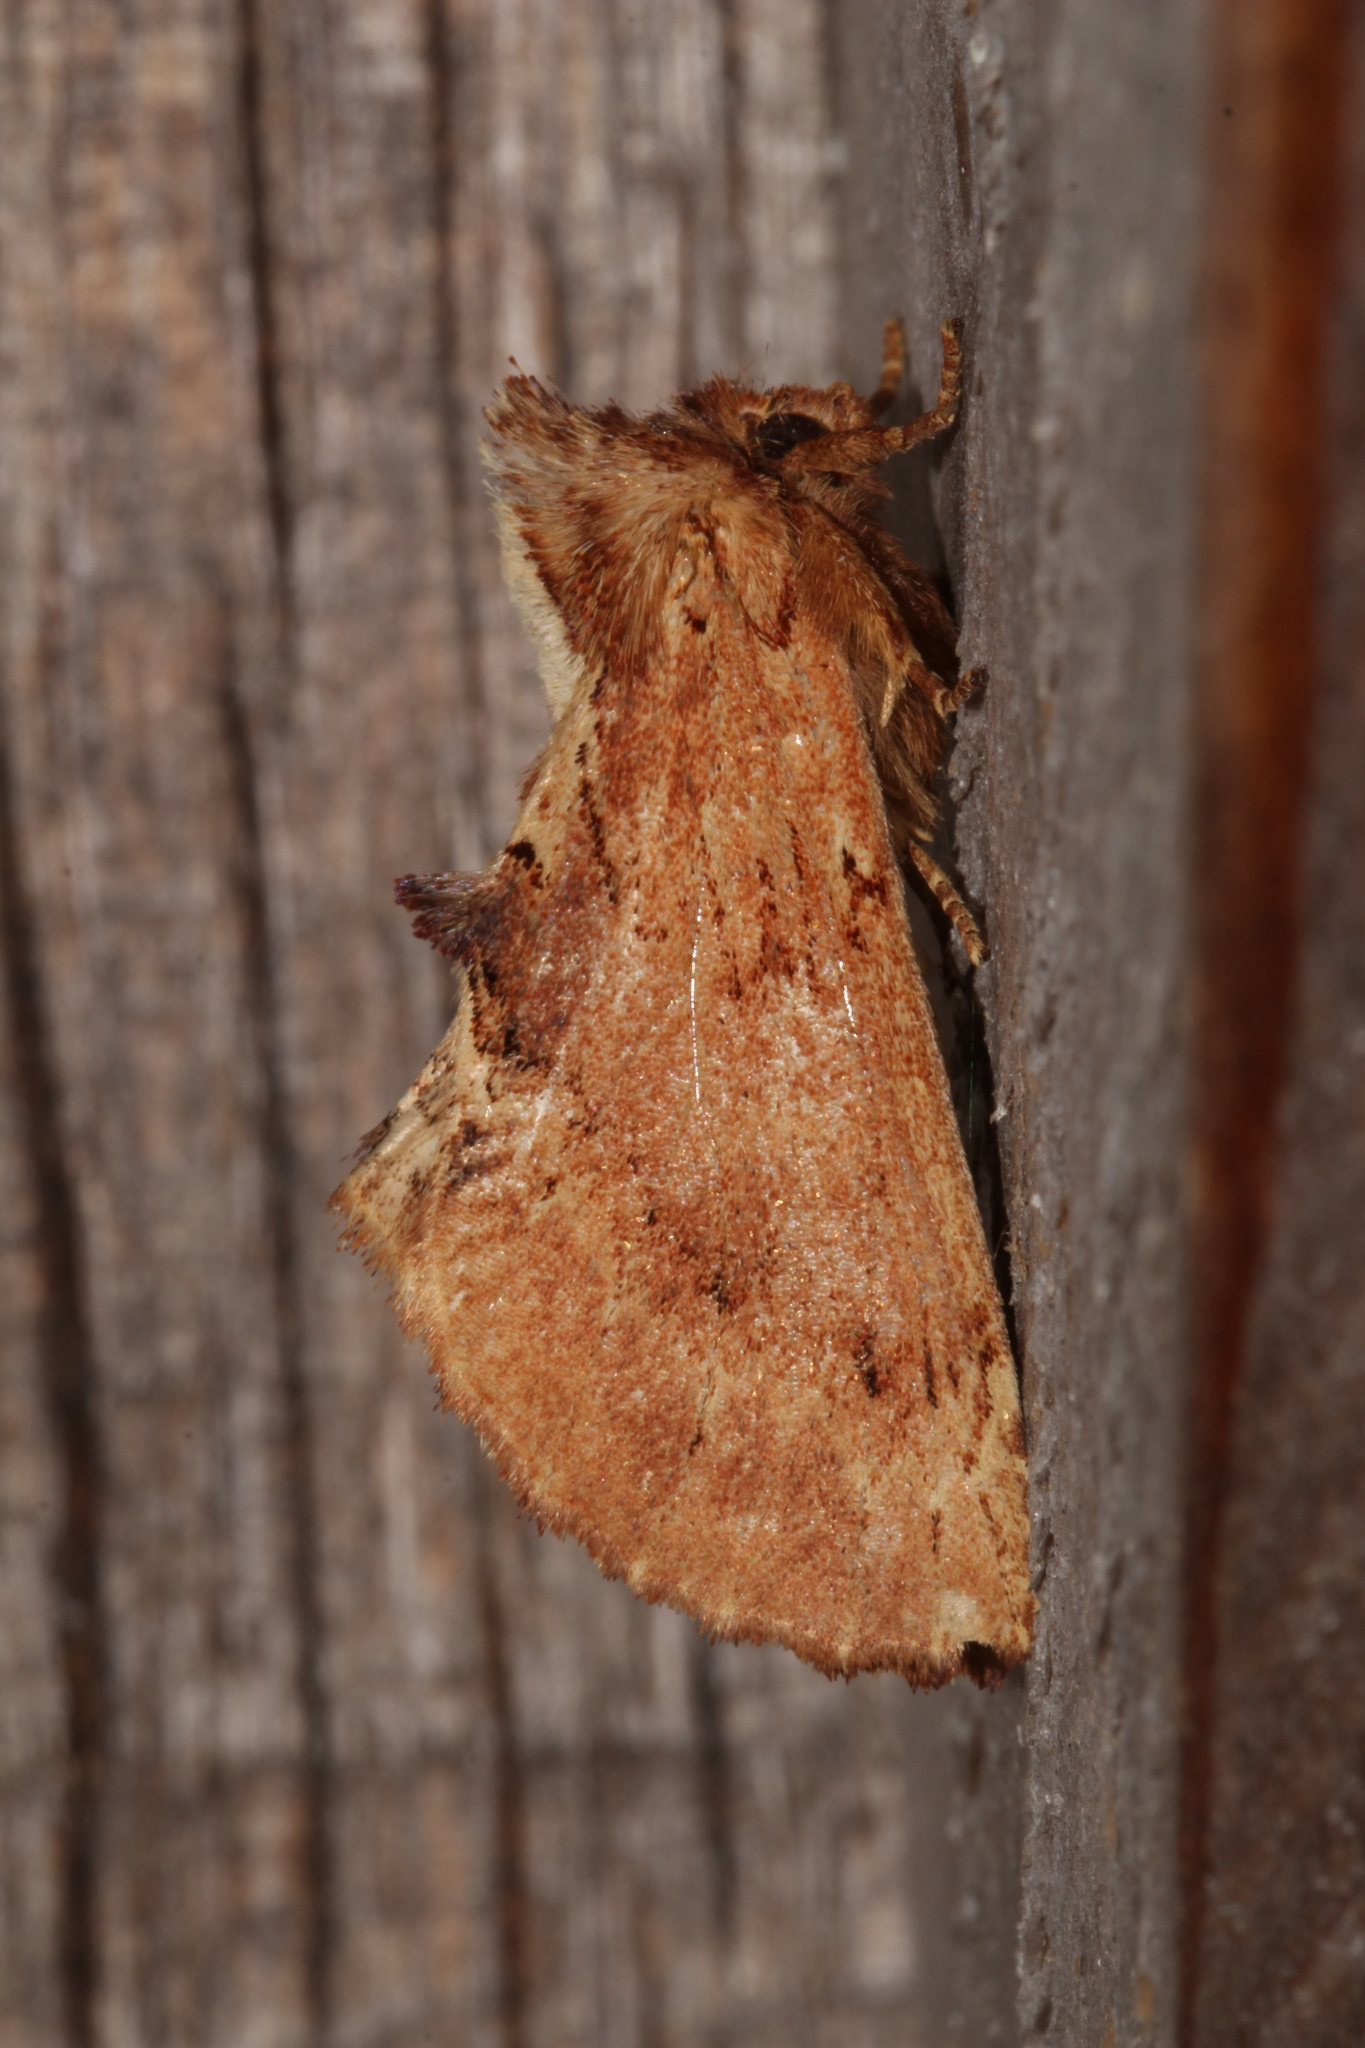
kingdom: Animalia
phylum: Arthropoda
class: Insecta
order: Lepidoptera
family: Notodontidae
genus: Ptilodon
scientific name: Ptilodon capucina
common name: Coxcomb prominent
